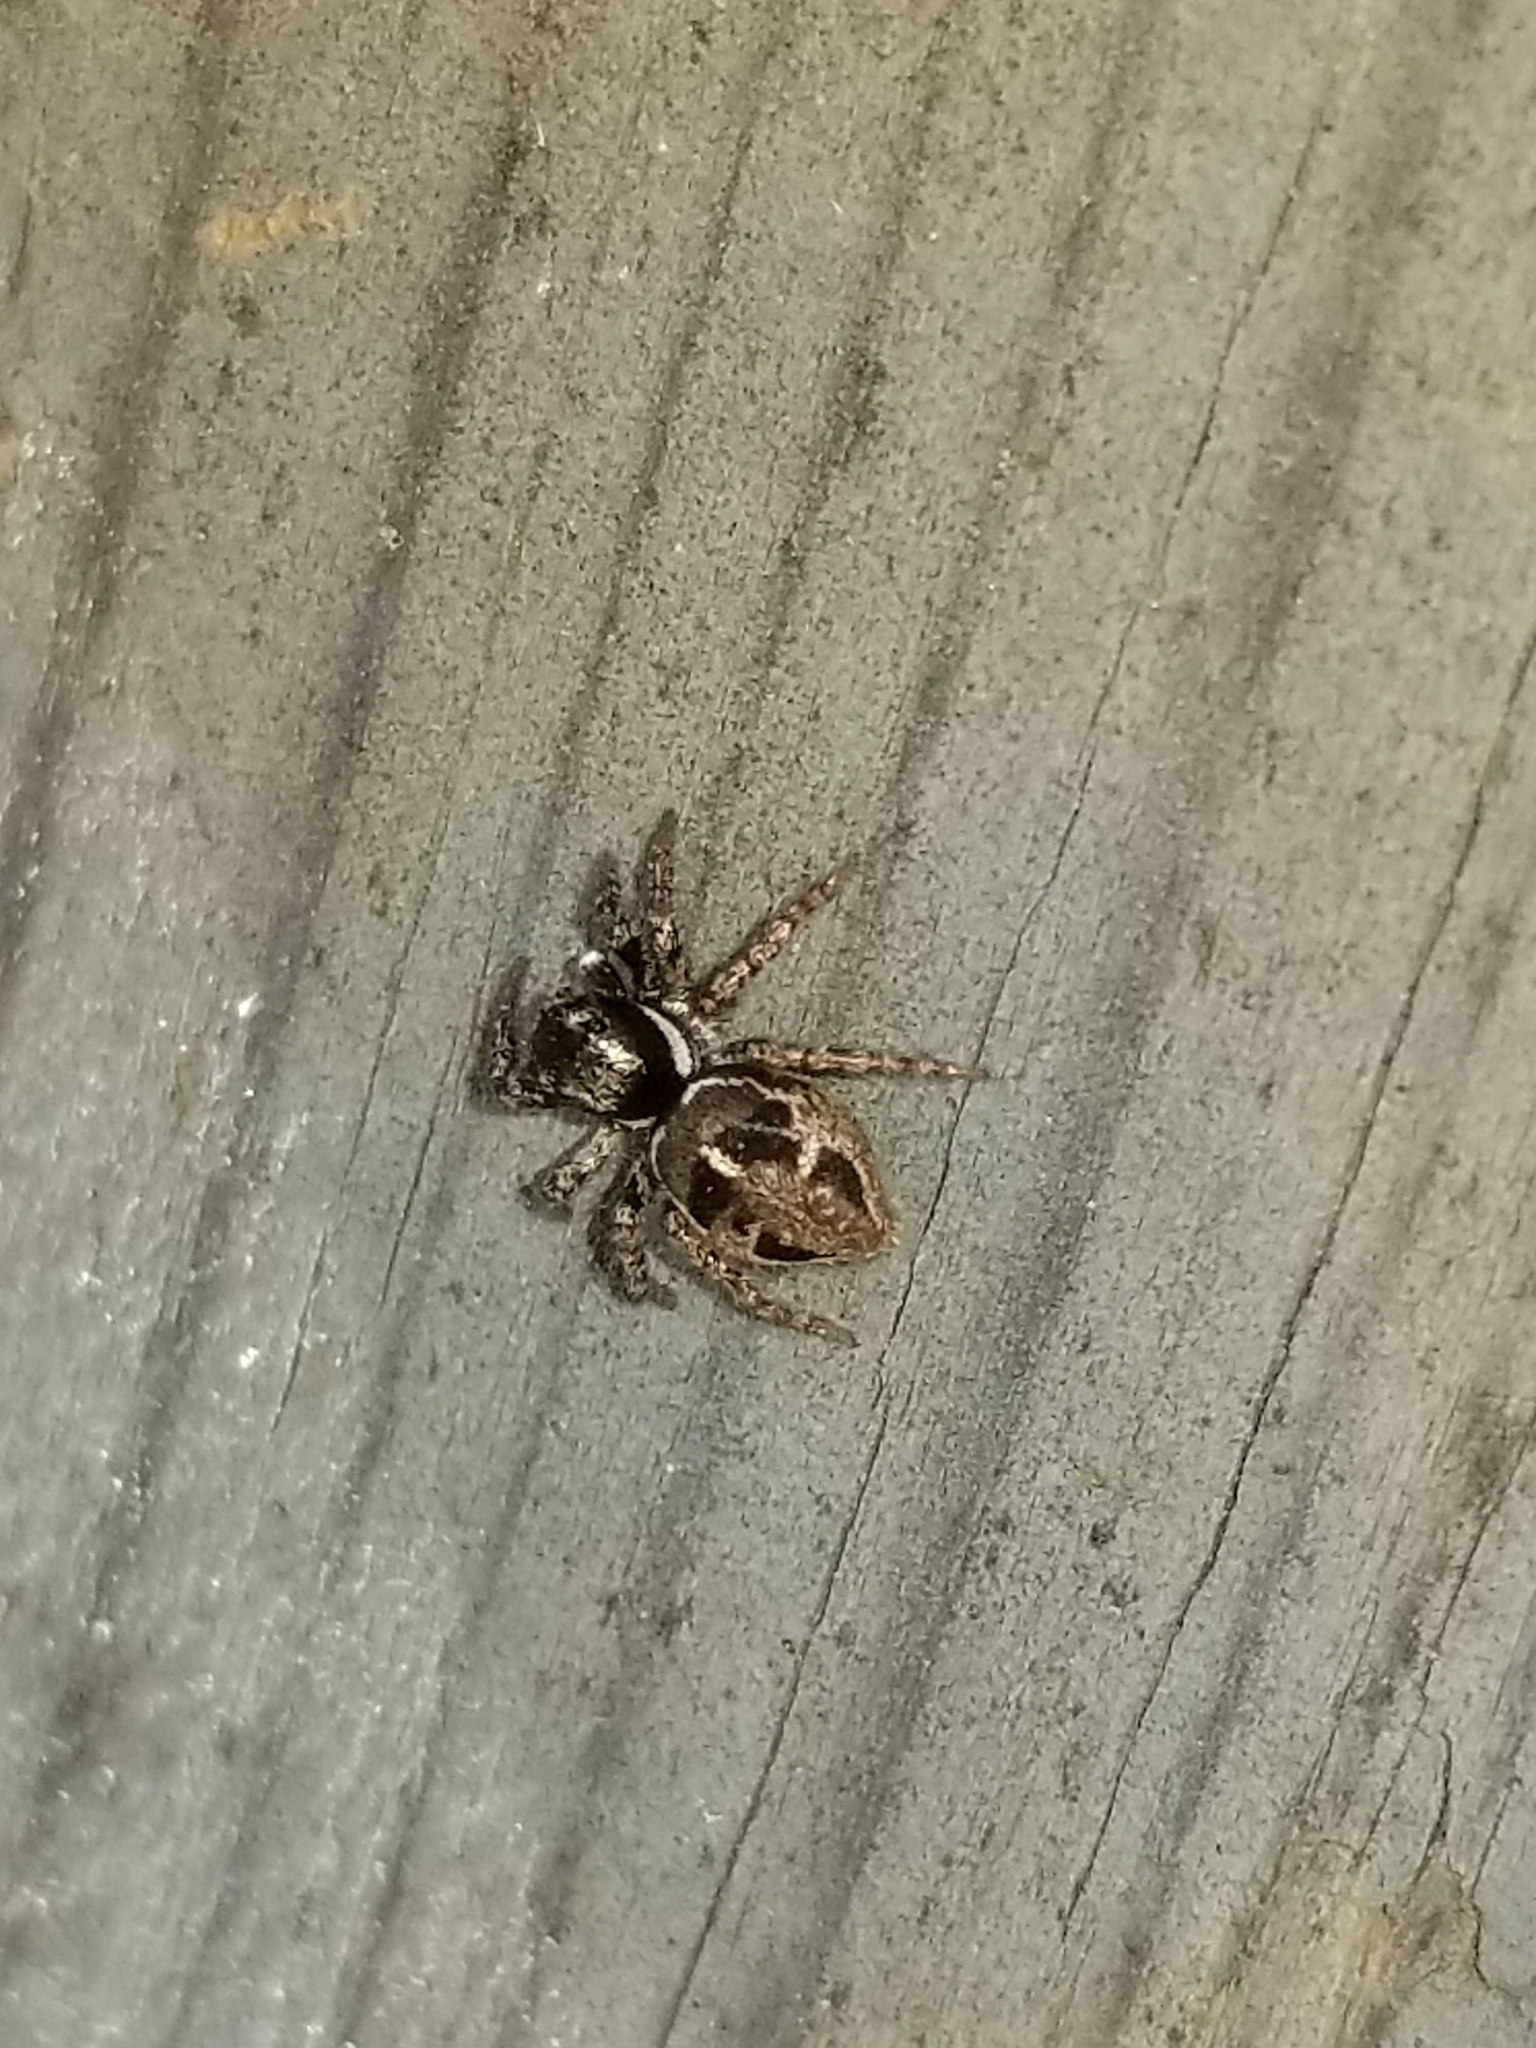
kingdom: Animalia
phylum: Arthropoda
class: Arachnida
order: Araneae
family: Salticidae
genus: Anasaitis
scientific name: Anasaitis canosa
